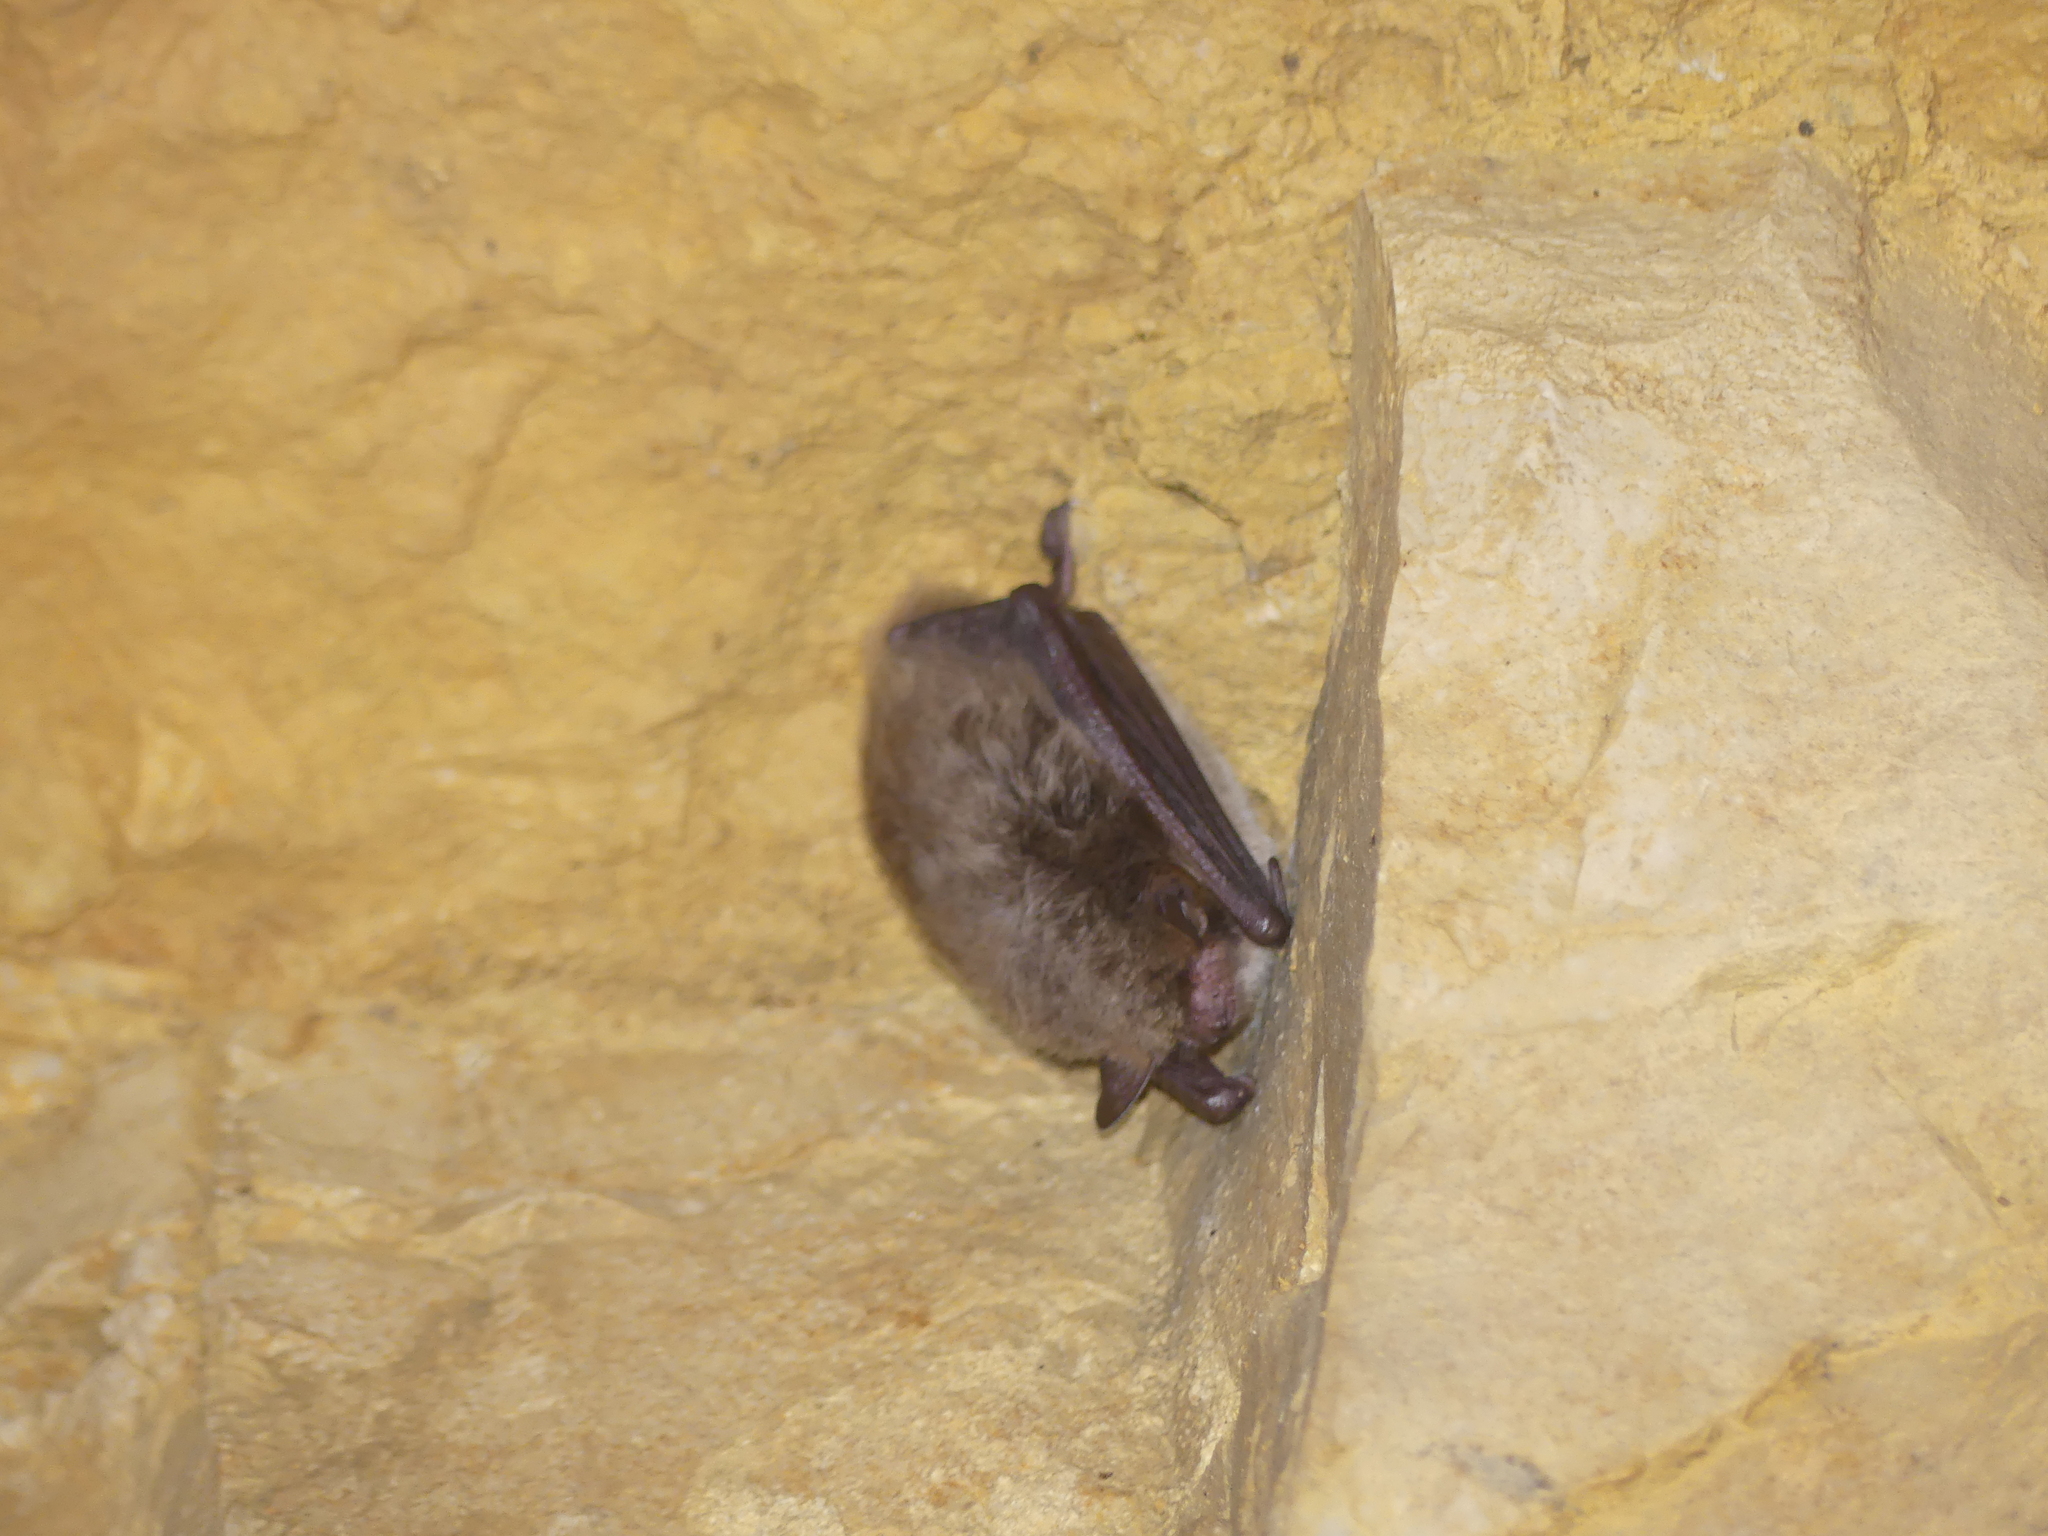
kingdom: Animalia
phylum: Chordata
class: Mammalia
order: Chiroptera
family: Vespertilionidae
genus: Myotis
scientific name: Myotis daubentonii
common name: Daubenton's myotis
